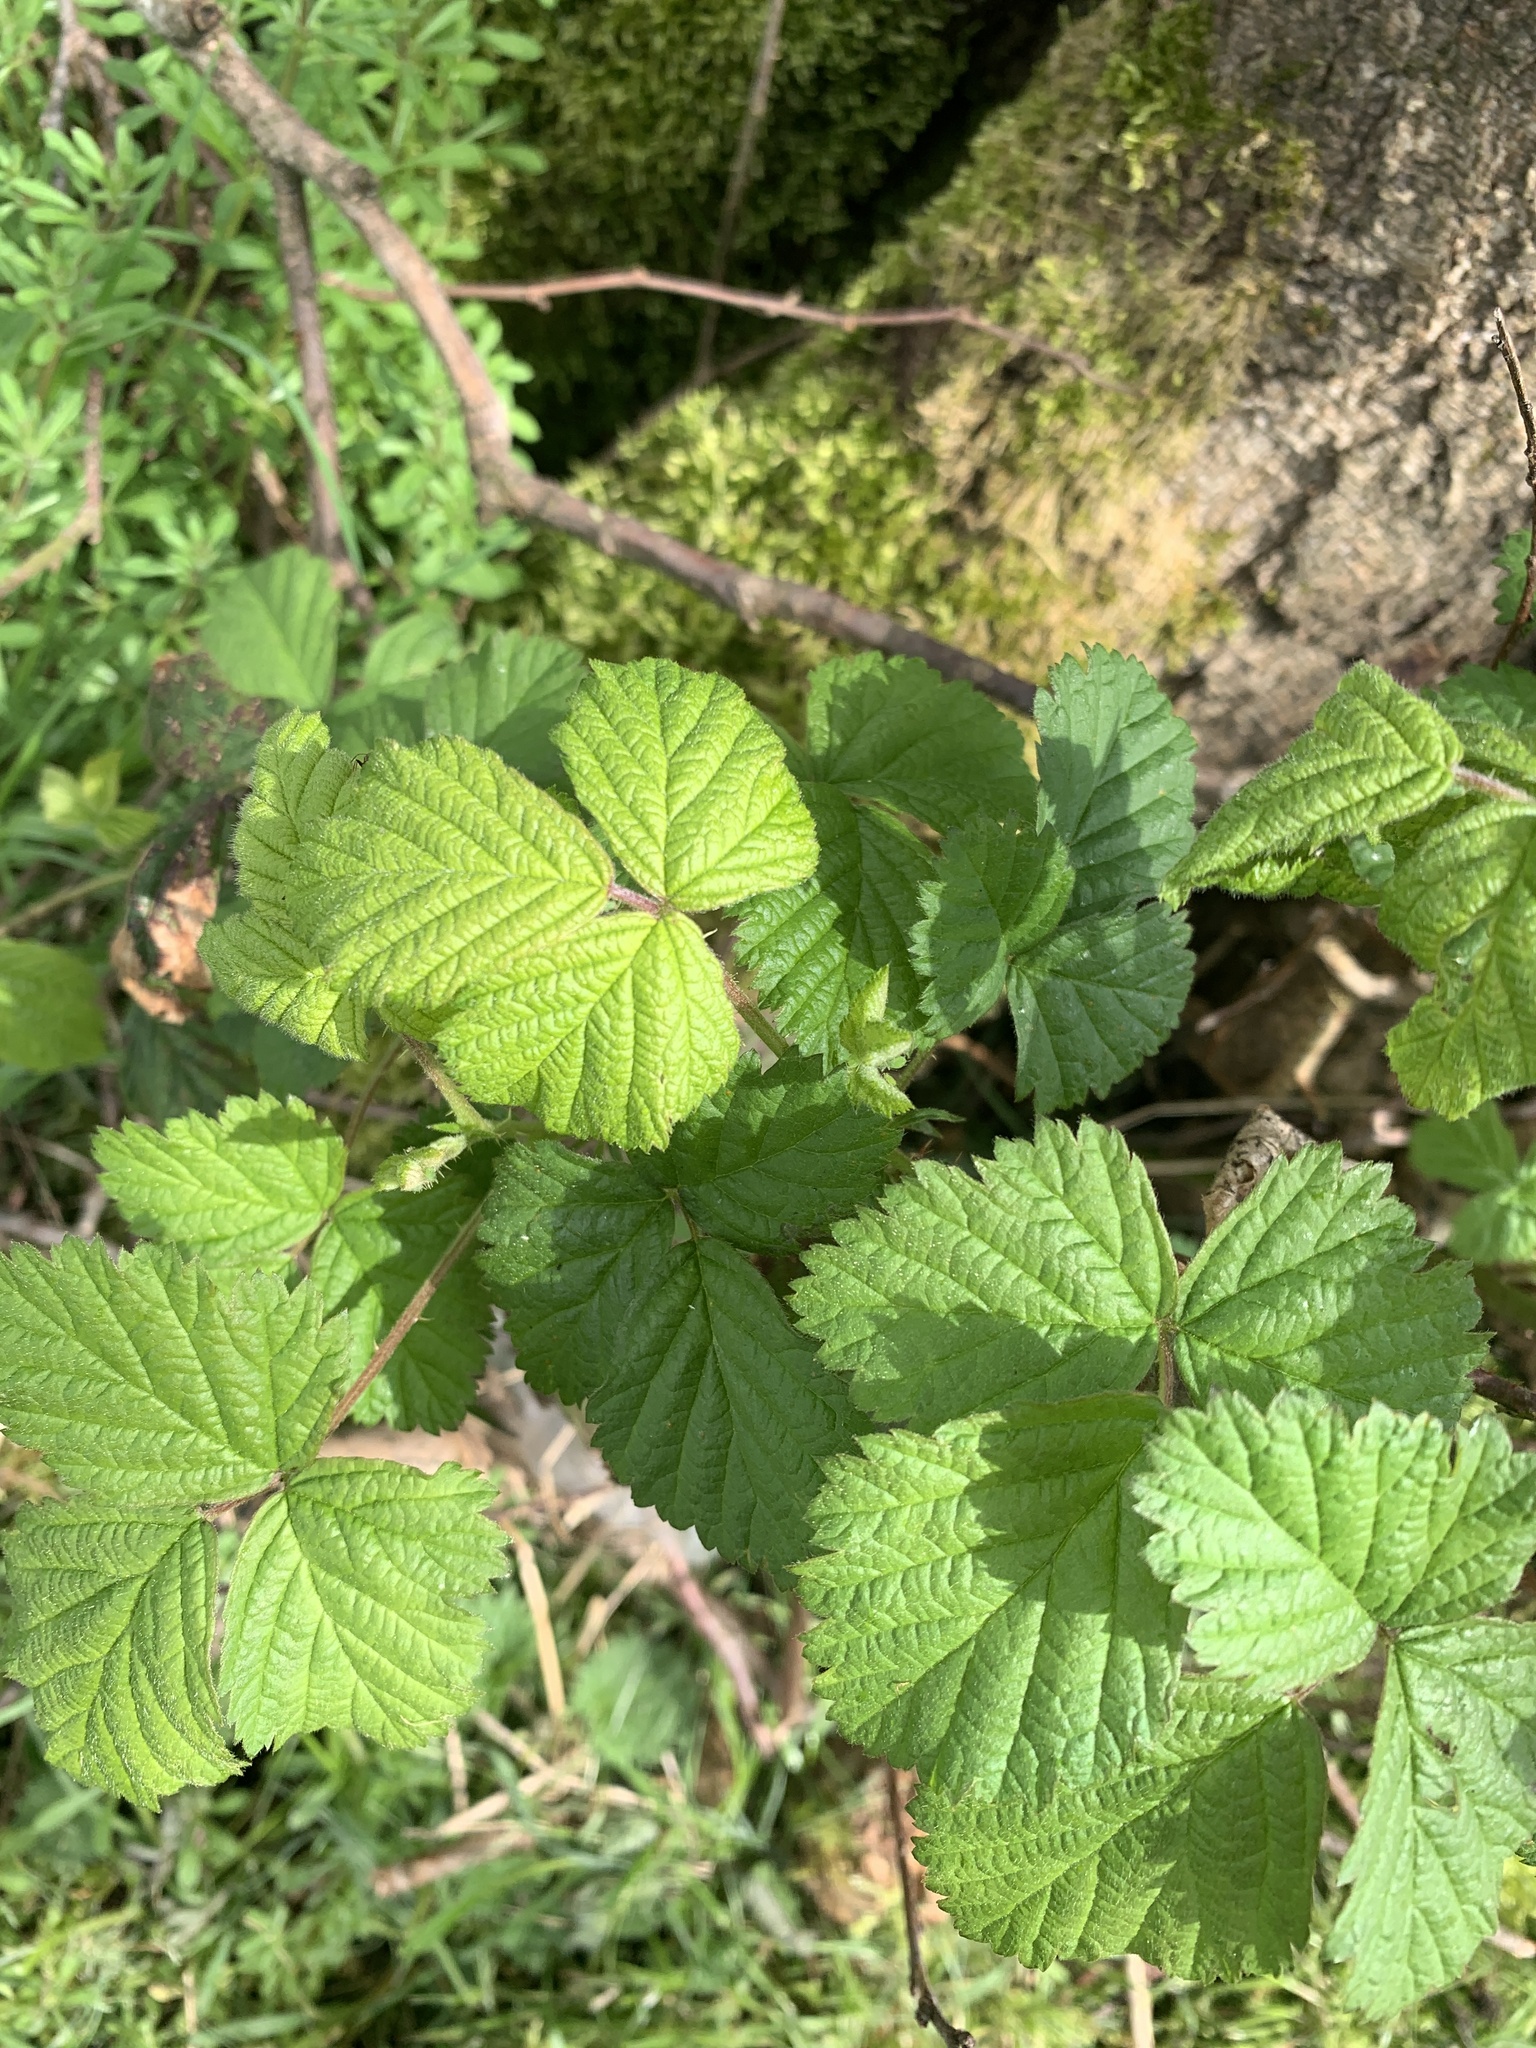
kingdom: Plantae
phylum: Tracheophyta
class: Magnoliopsida
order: Rosales
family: Rosaceae
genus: Rubus
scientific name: Rubus fruticosus
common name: Blackberry, bramble
